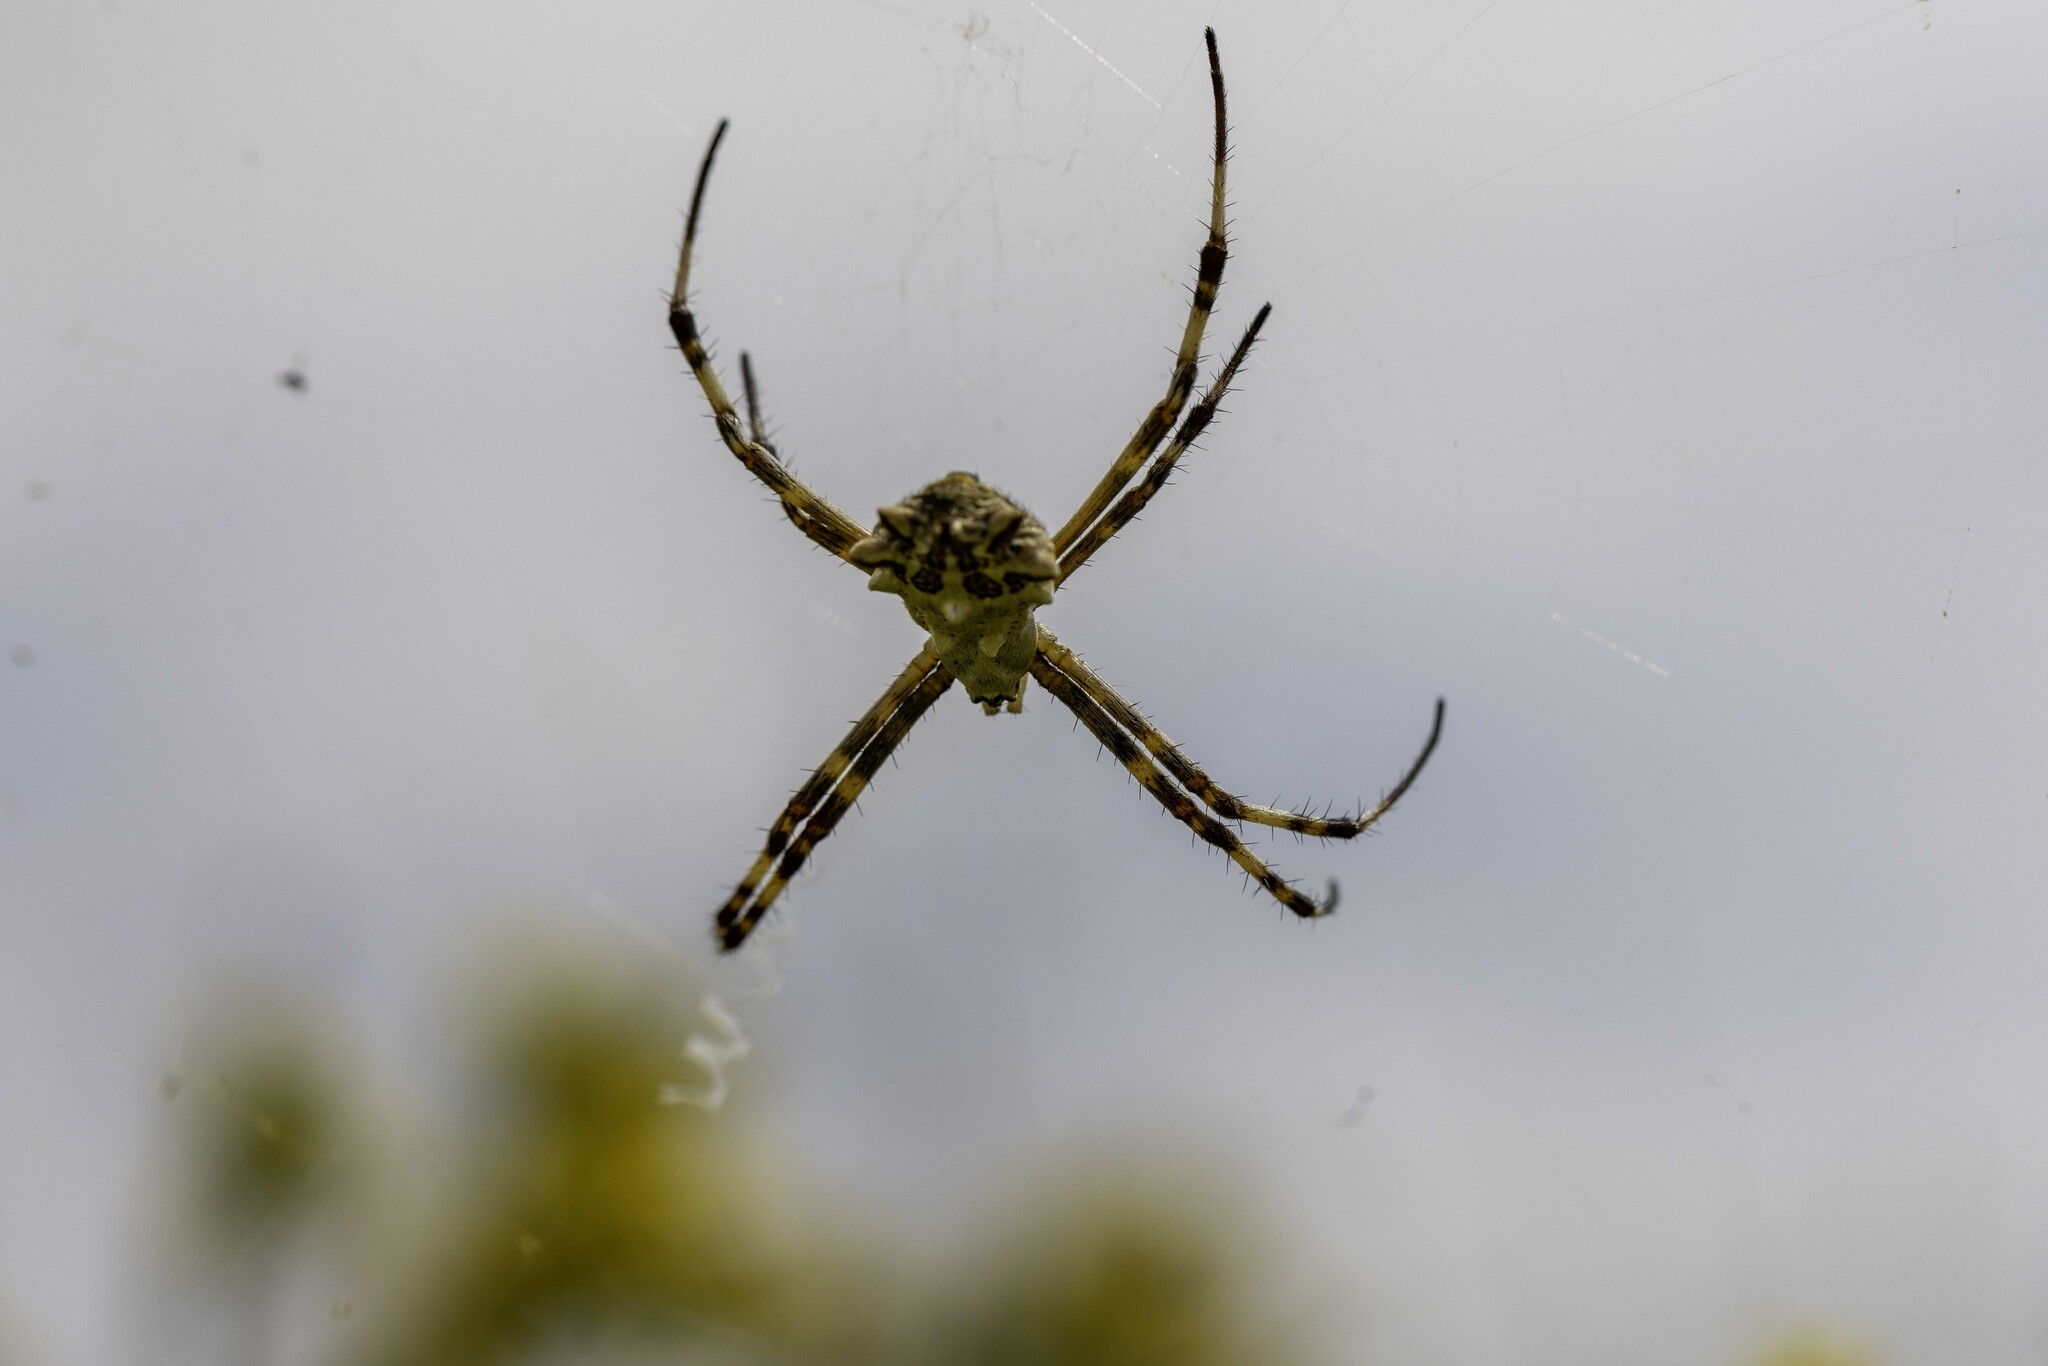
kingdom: Animalia
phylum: Arthropoda
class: Arachnida
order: Araneae
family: Araneidae
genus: Argiope
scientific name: Argiope argentata
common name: Orb weavers
